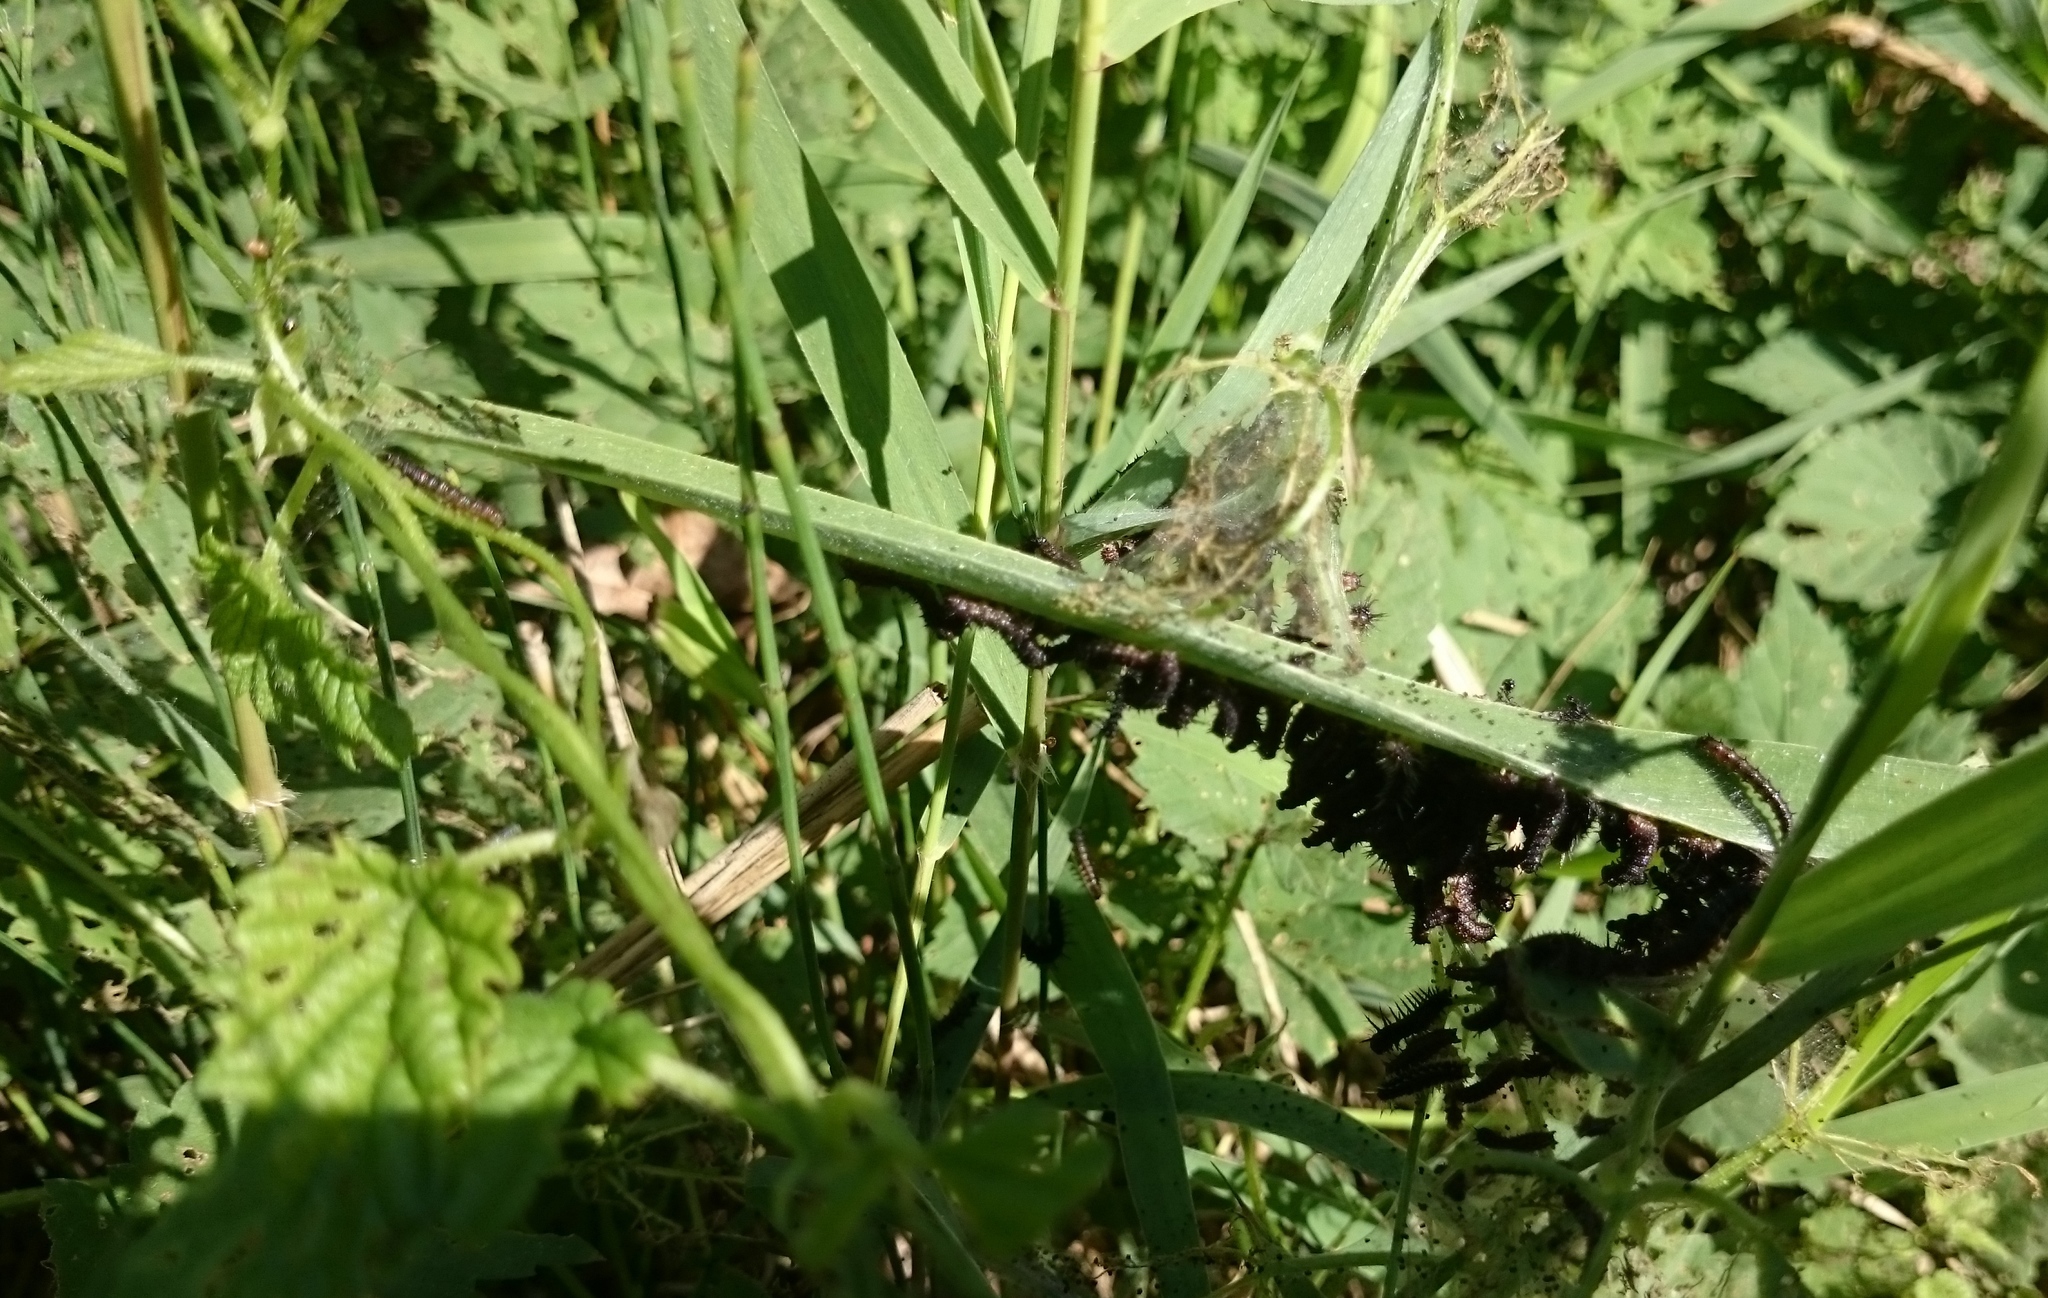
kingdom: Animalia
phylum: Arthropoda
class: Insecta
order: Lepidoptera
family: Nymphalidae
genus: Aglais
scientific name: Aglais io
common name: Peacock
